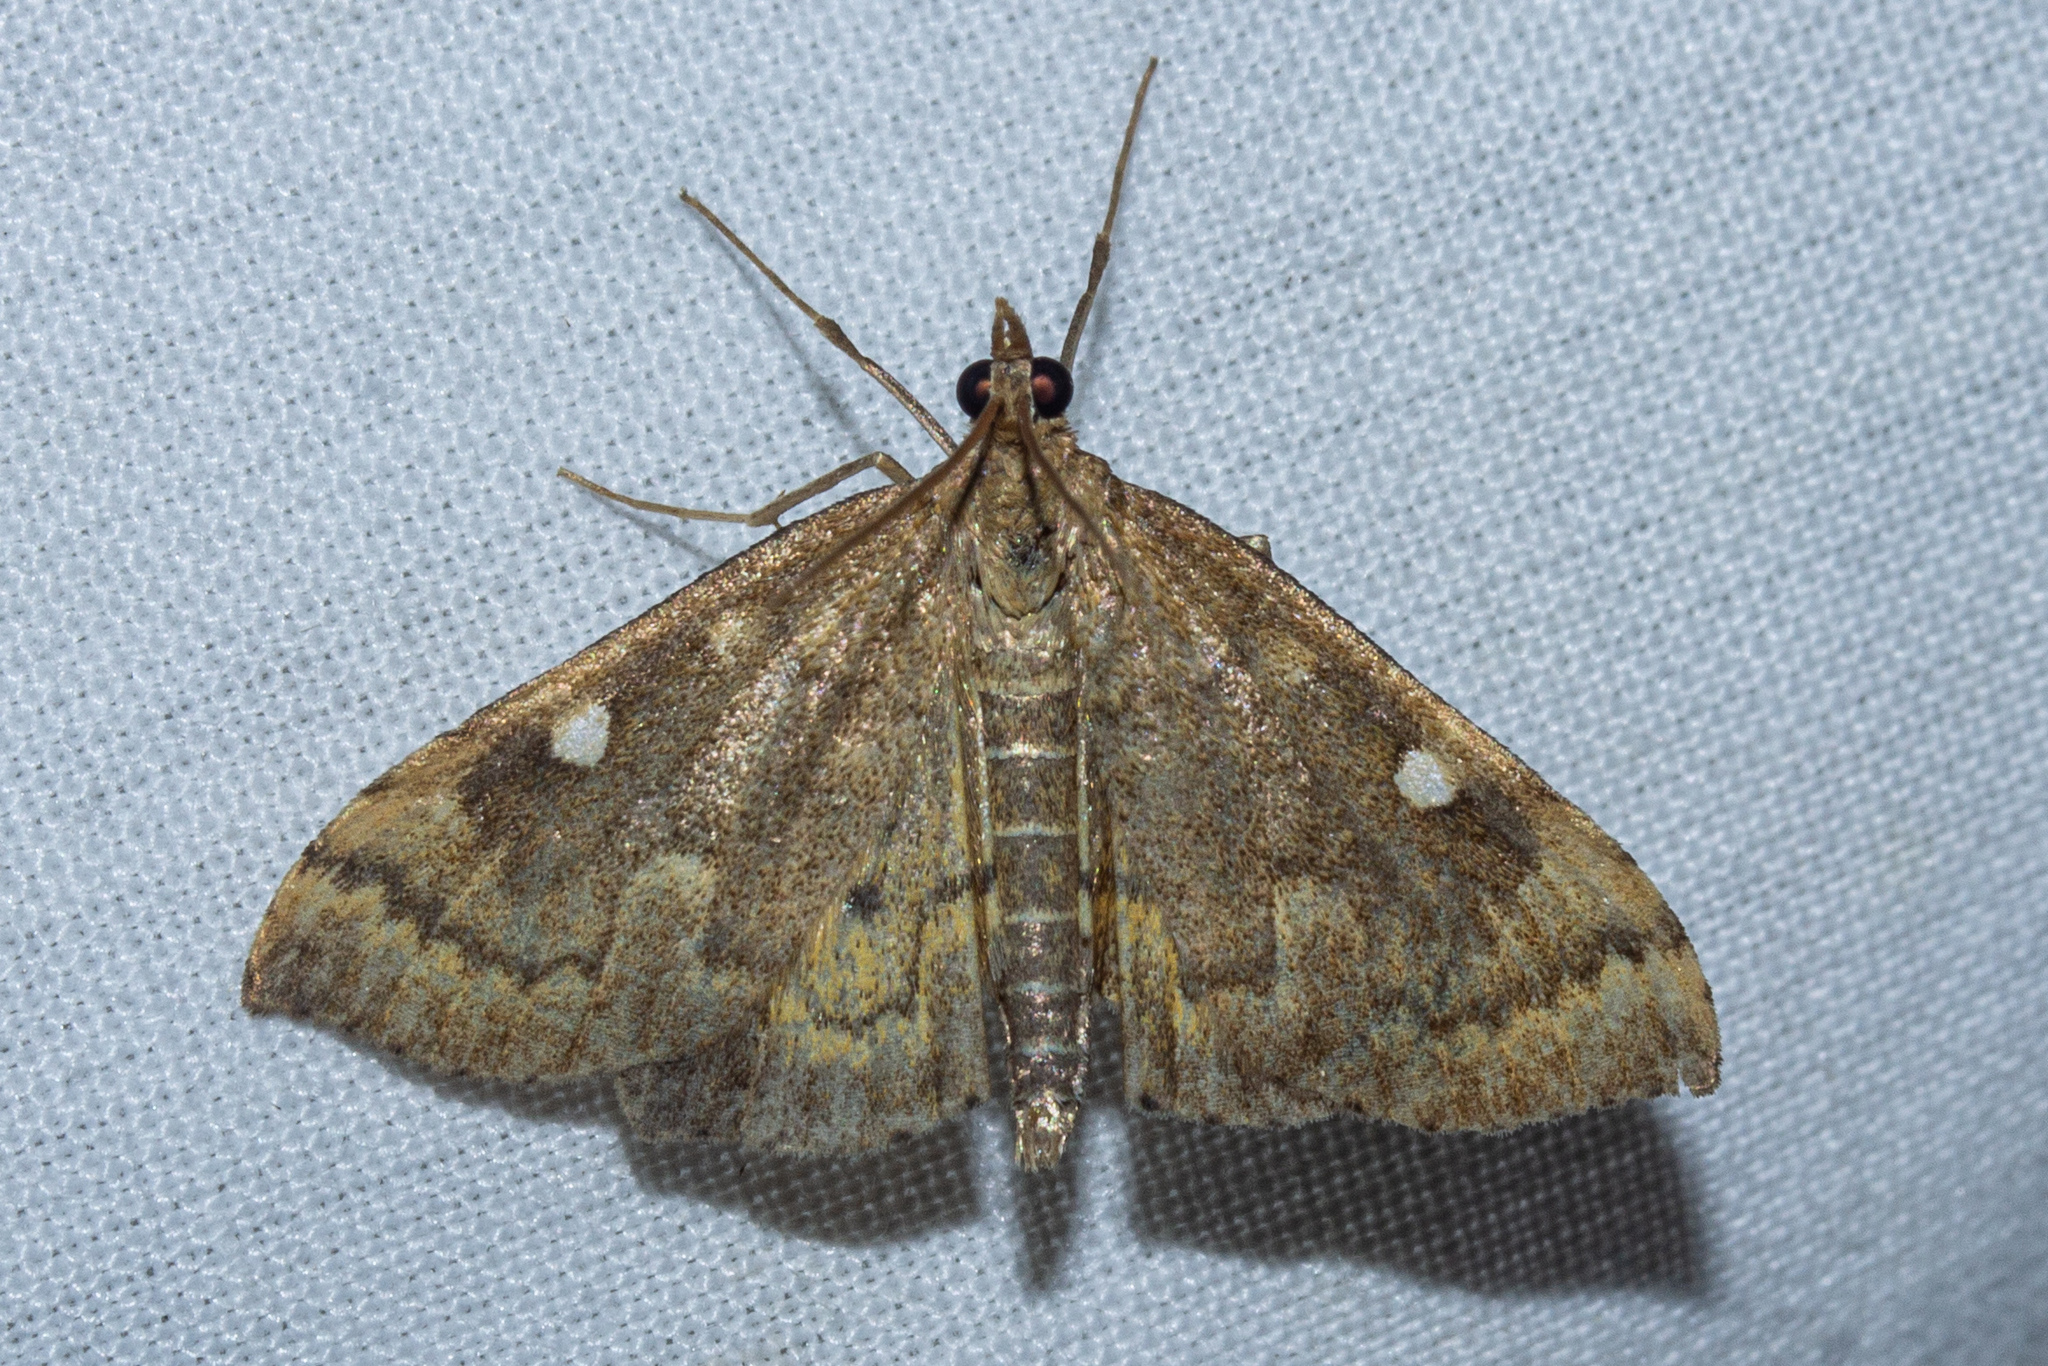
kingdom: Animalia
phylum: Arthropoda
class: Insecta
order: Lepidoptera
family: Crambidae
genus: Udea
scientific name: Udea marmarina
